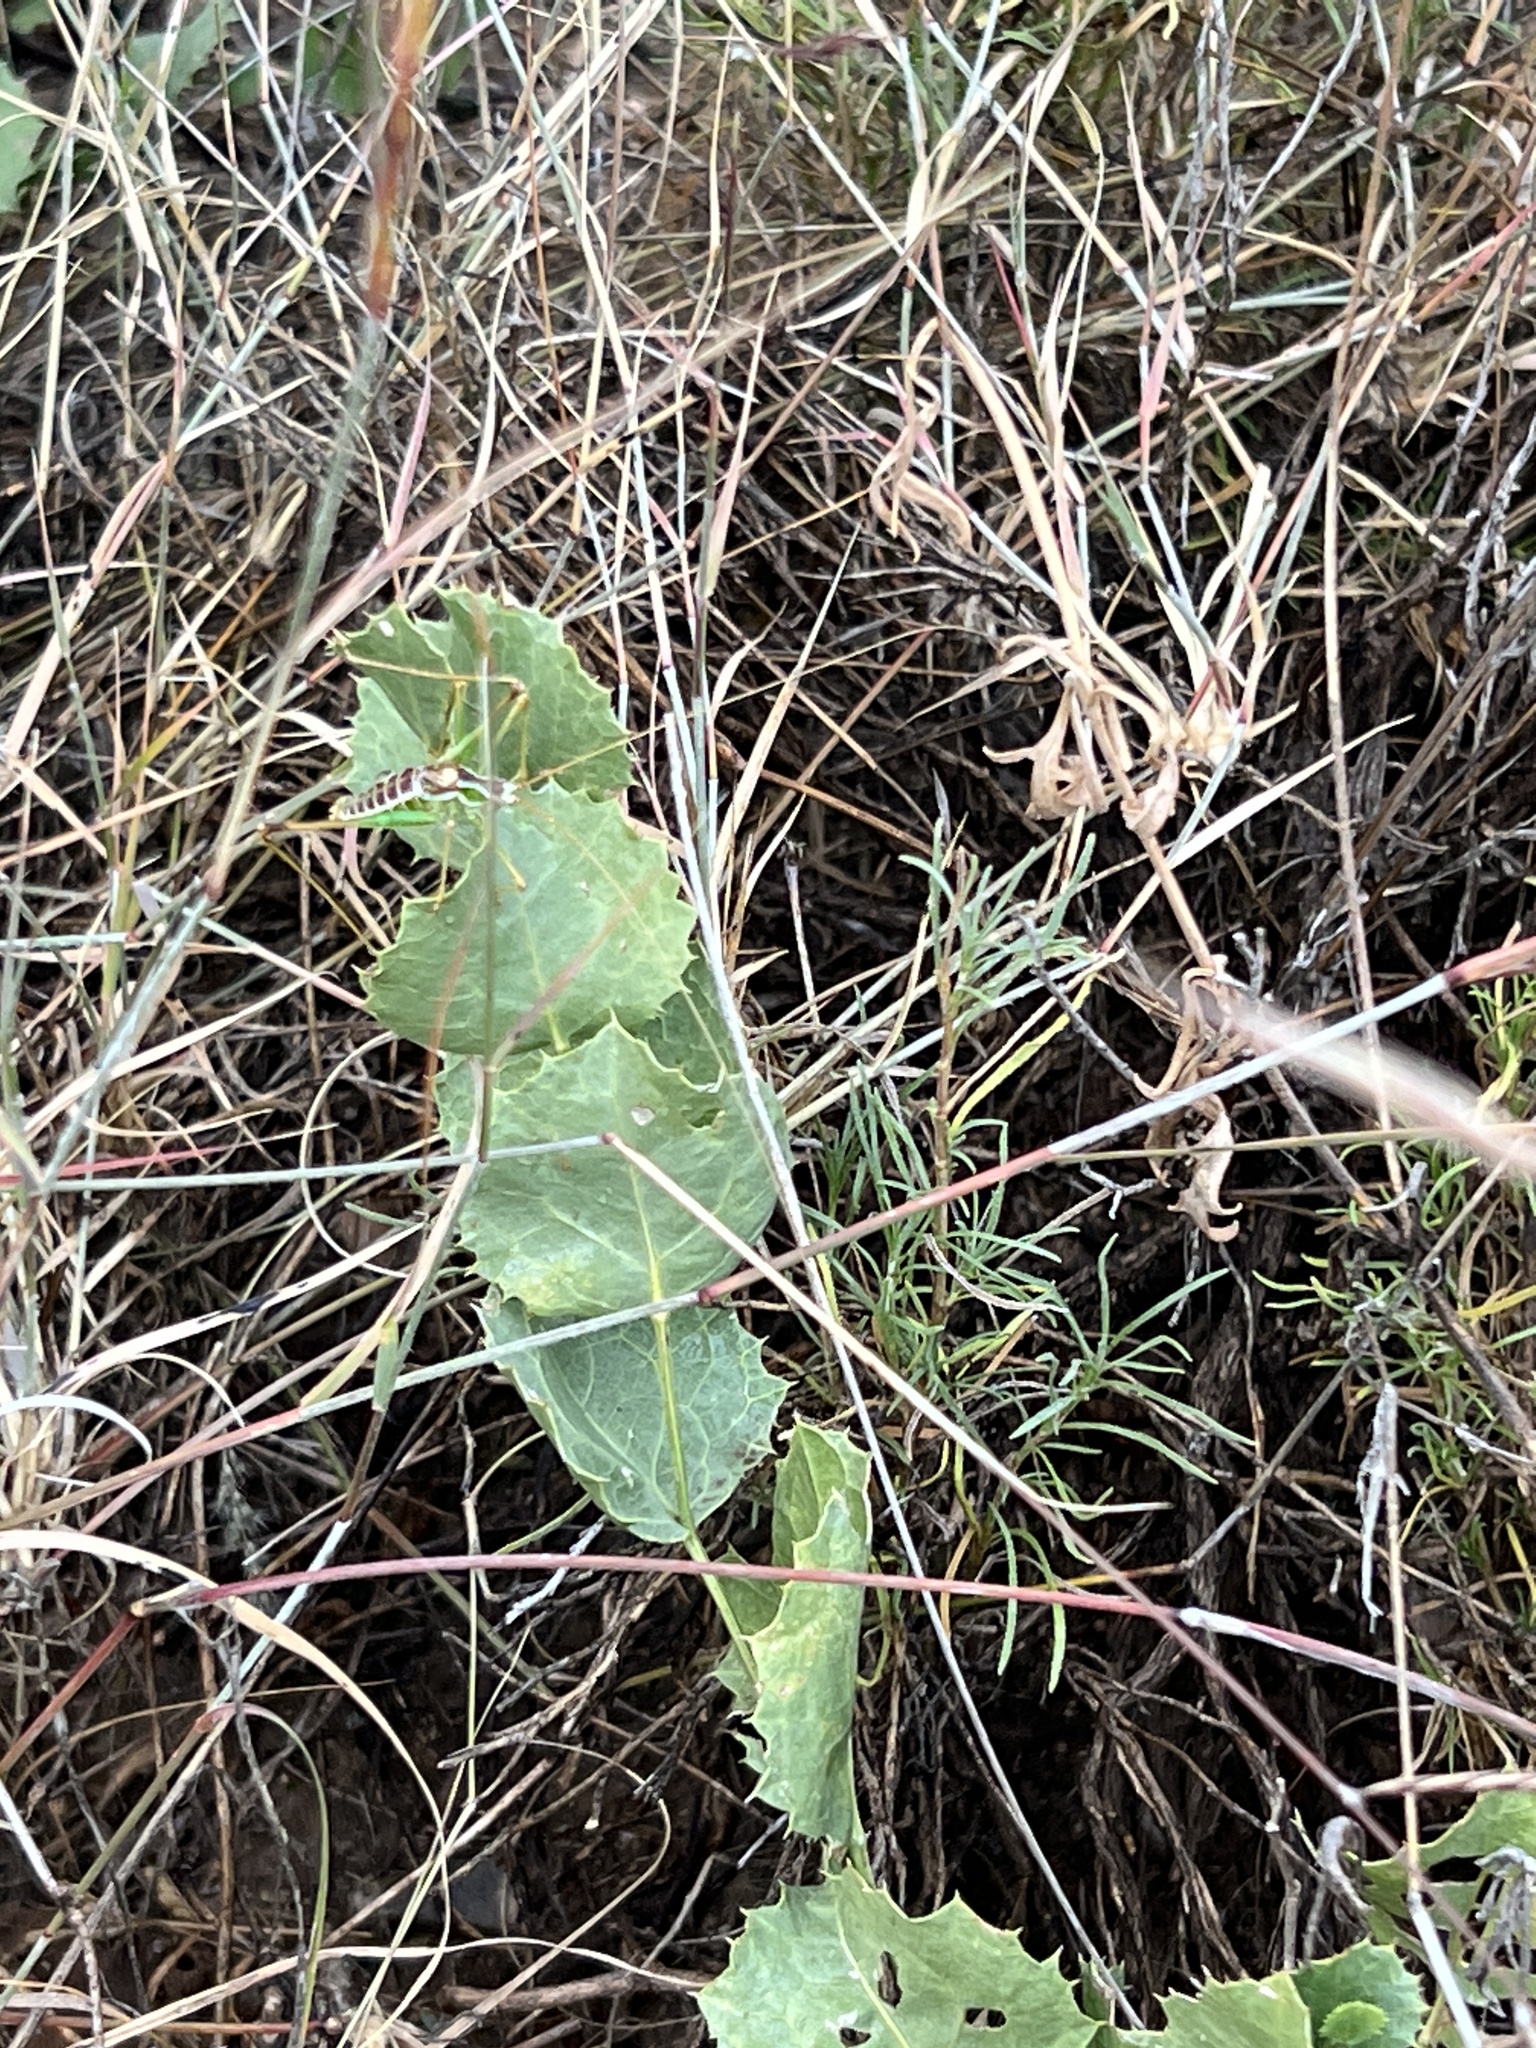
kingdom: Plantae
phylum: Tracheophyta
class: Magnoliopsida
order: Asterales
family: Asteraceae
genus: Acourtia
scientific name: Acourtia nana
